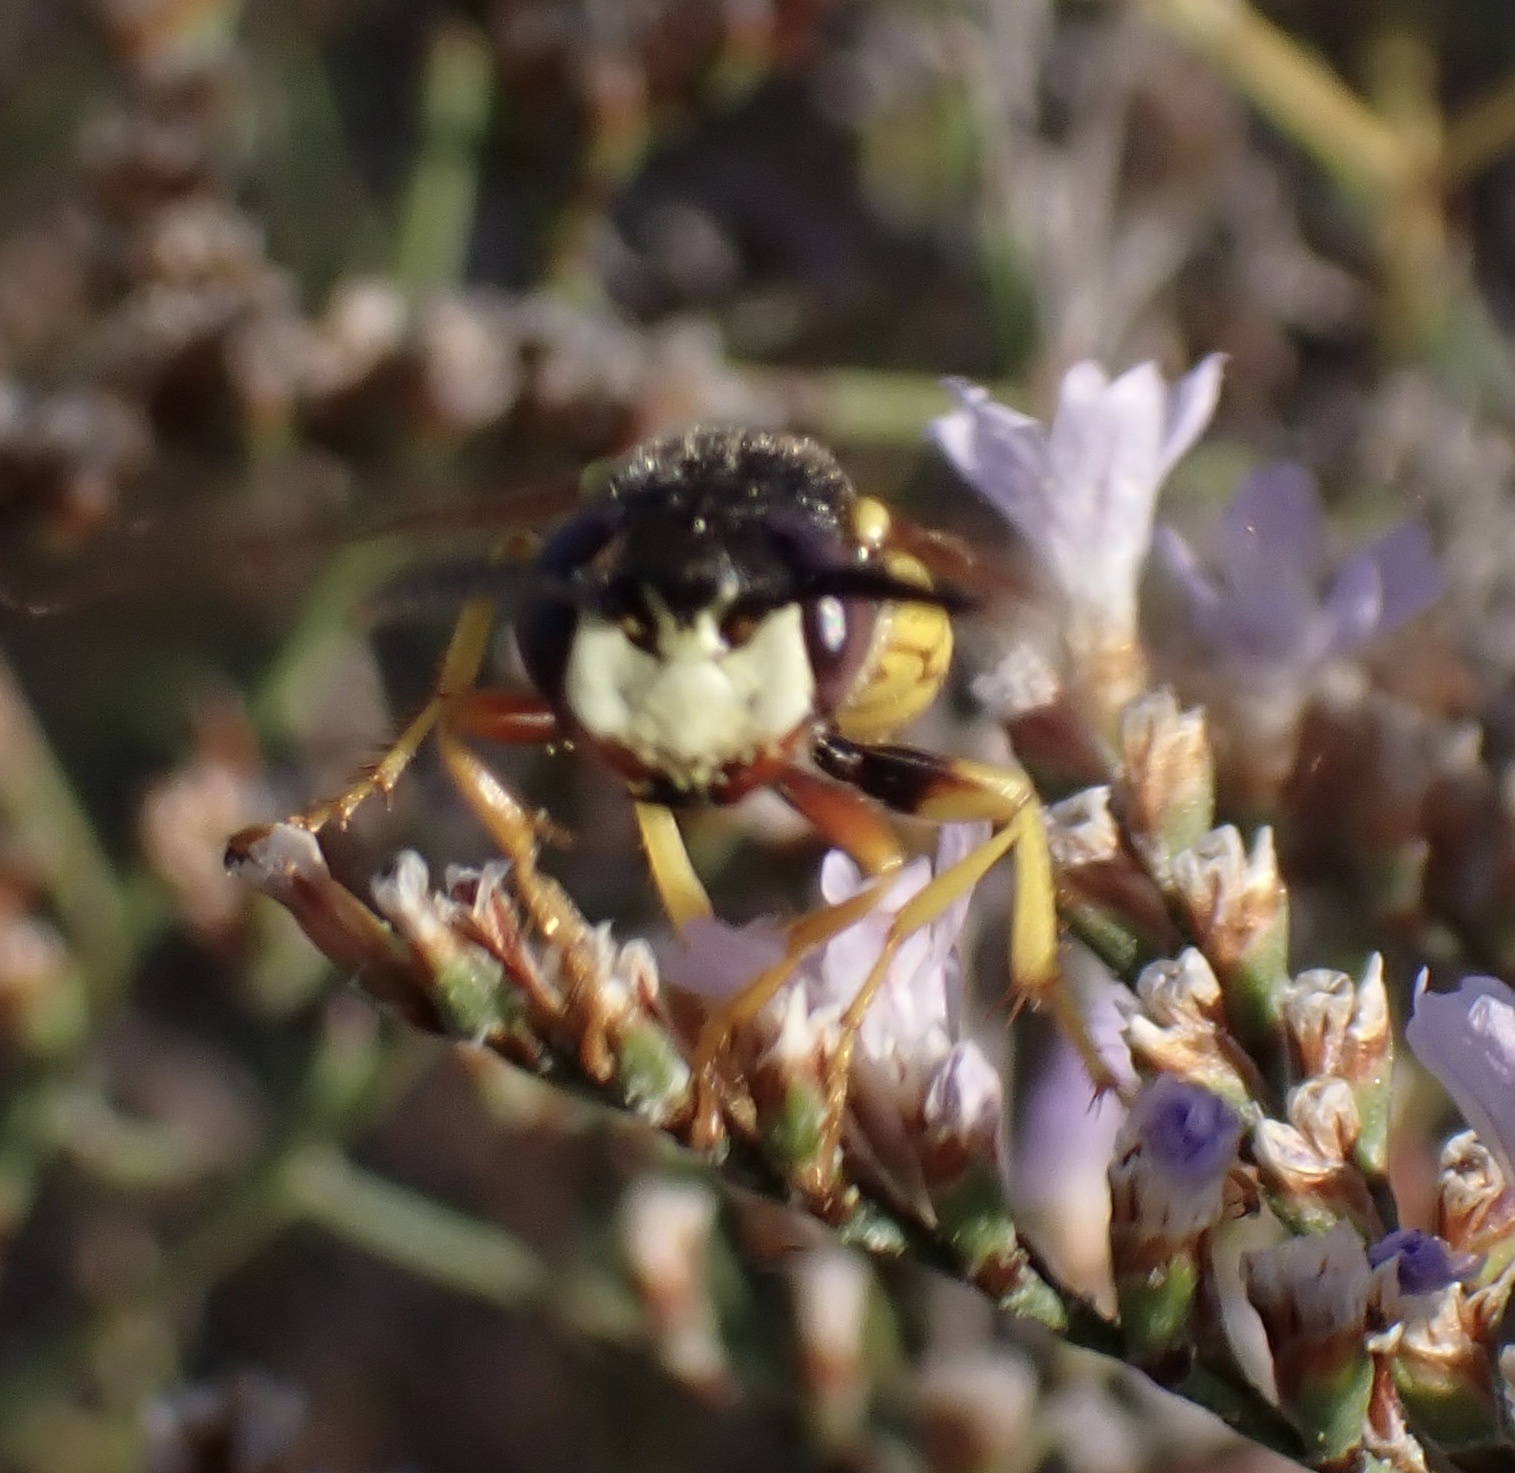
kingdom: Animalia
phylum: Arthropoda
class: Insecta
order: Hymenoptera
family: Crabronidae
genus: Philanthus
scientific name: Philanthus triangulum
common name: Bee wolf
